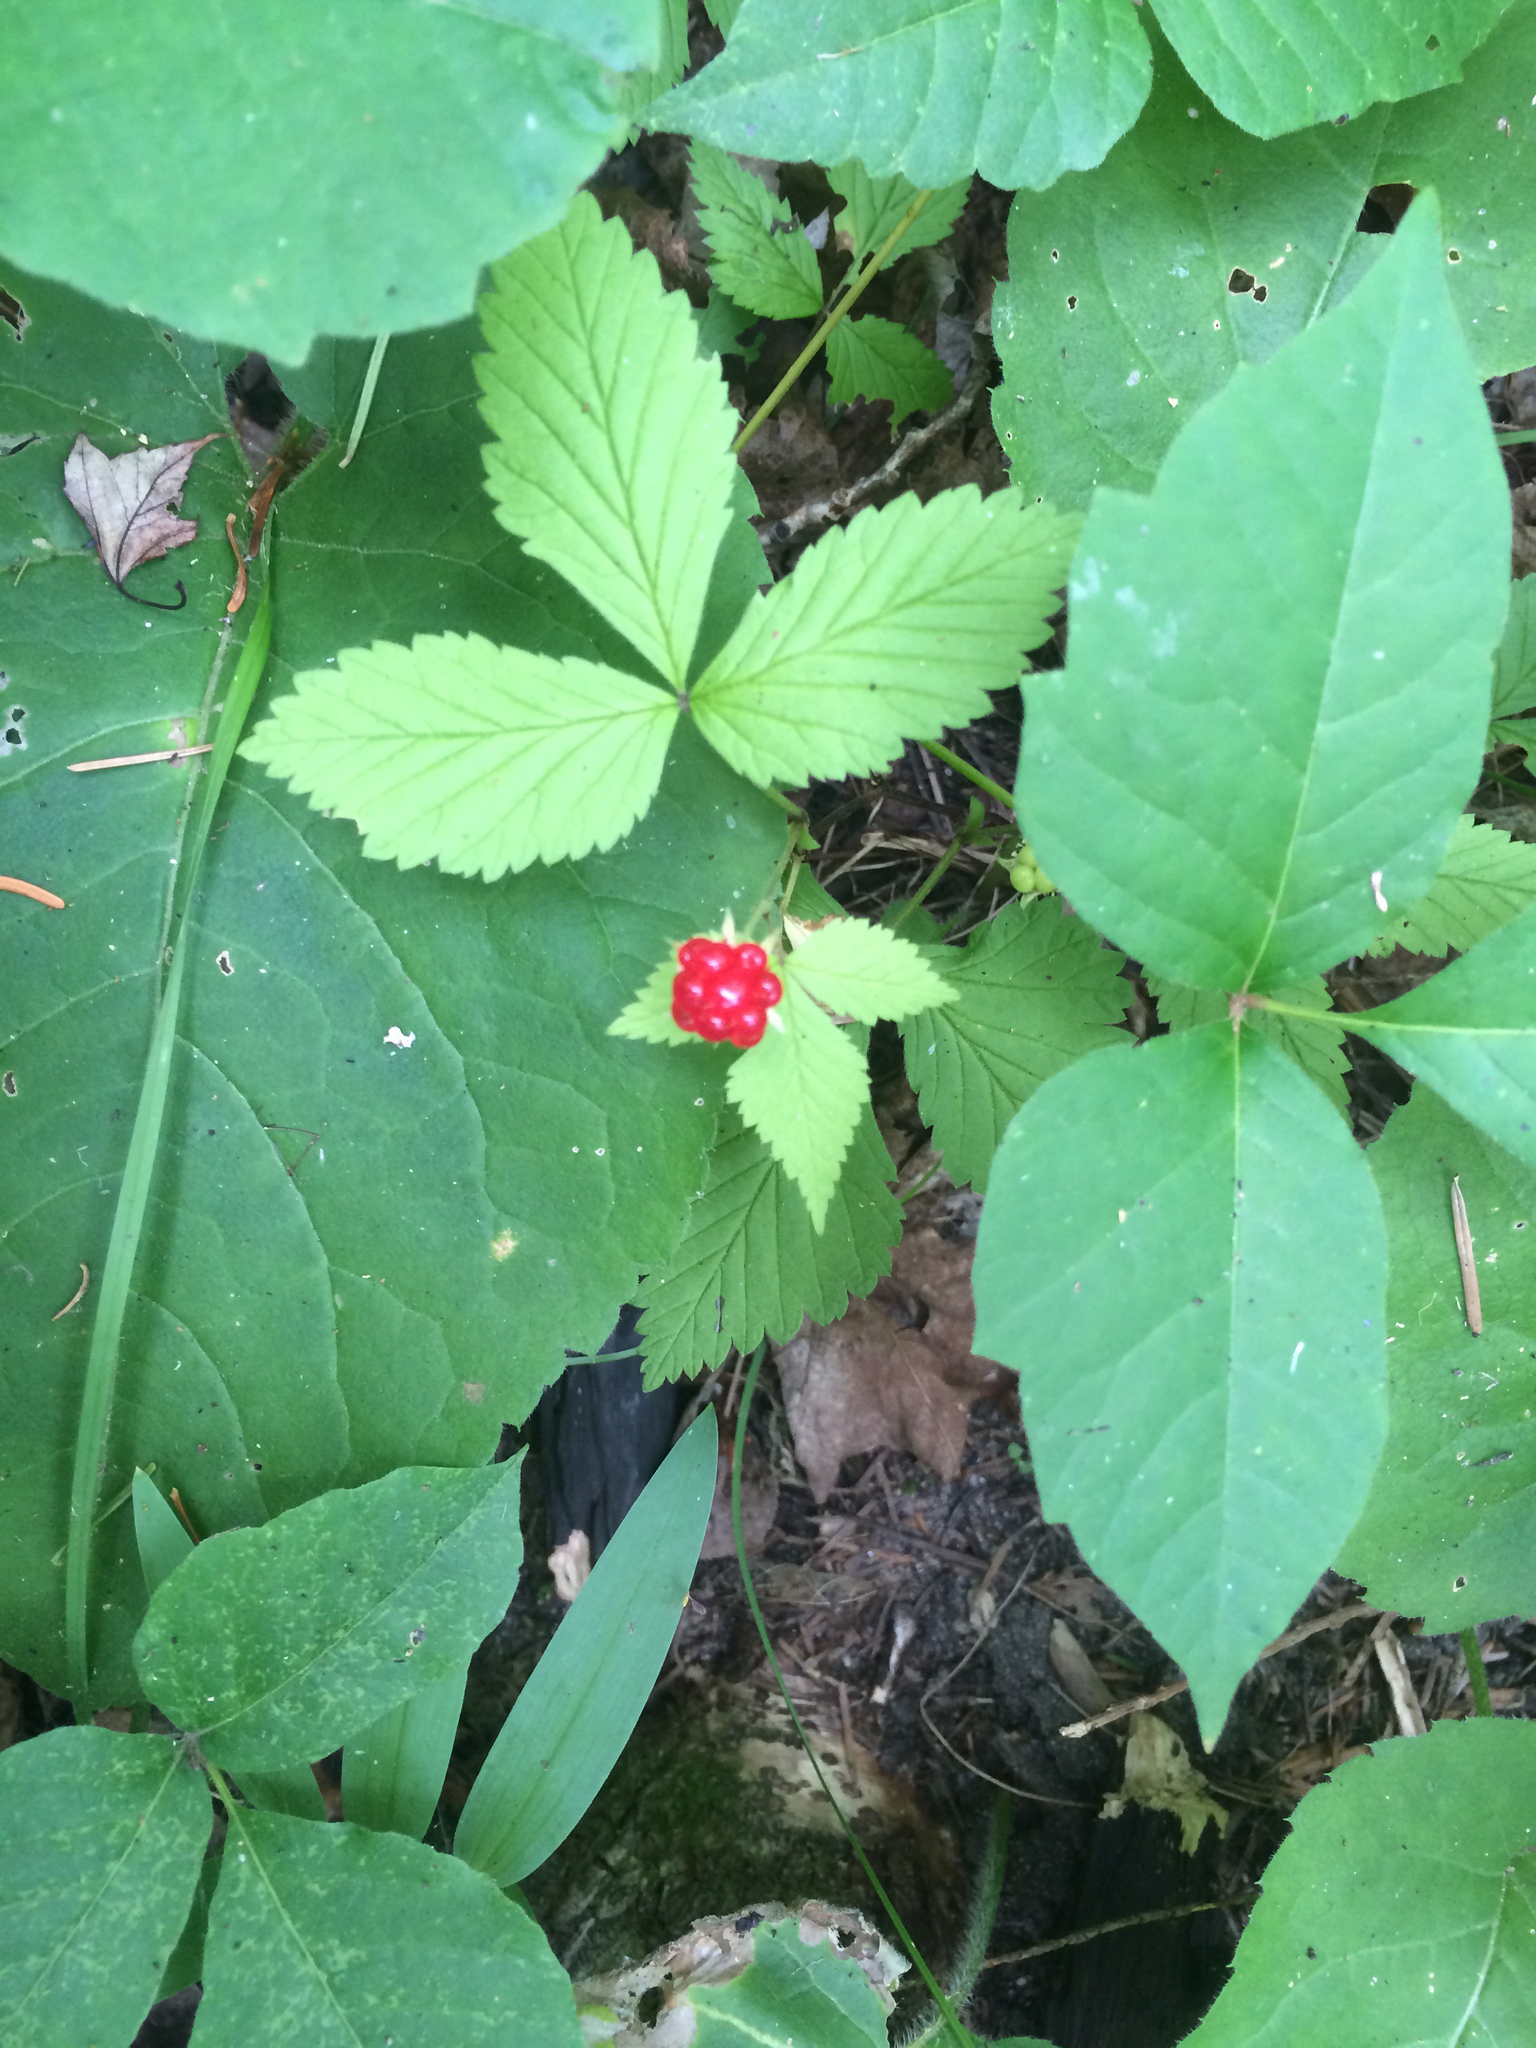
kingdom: Plantae
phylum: Tracheophyta
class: Magnoliopsida
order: Rosales
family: Rosaceae
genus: Rubus
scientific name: Rubus pubescens
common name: Dwarf raspberry
